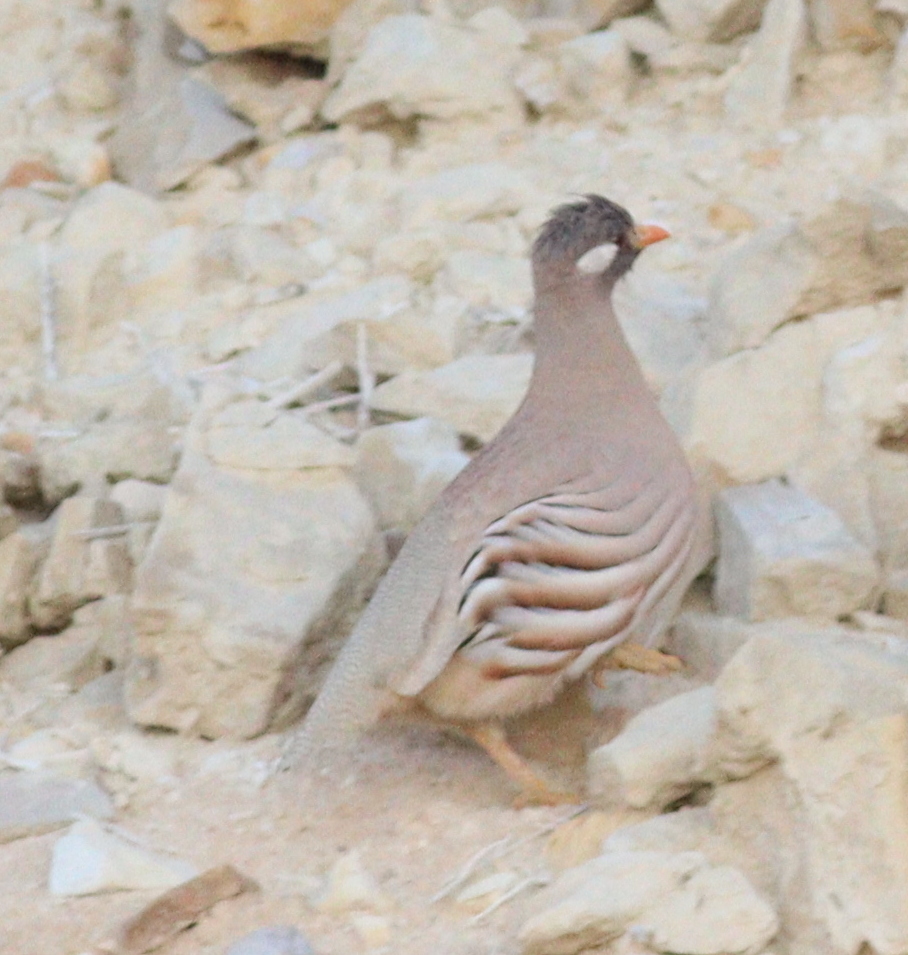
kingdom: Animalia
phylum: Chordata
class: Aves
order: Galliformes
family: Phasianidae
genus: Ammoperdix
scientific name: Ammoperdix heyi
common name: Sand partridge
